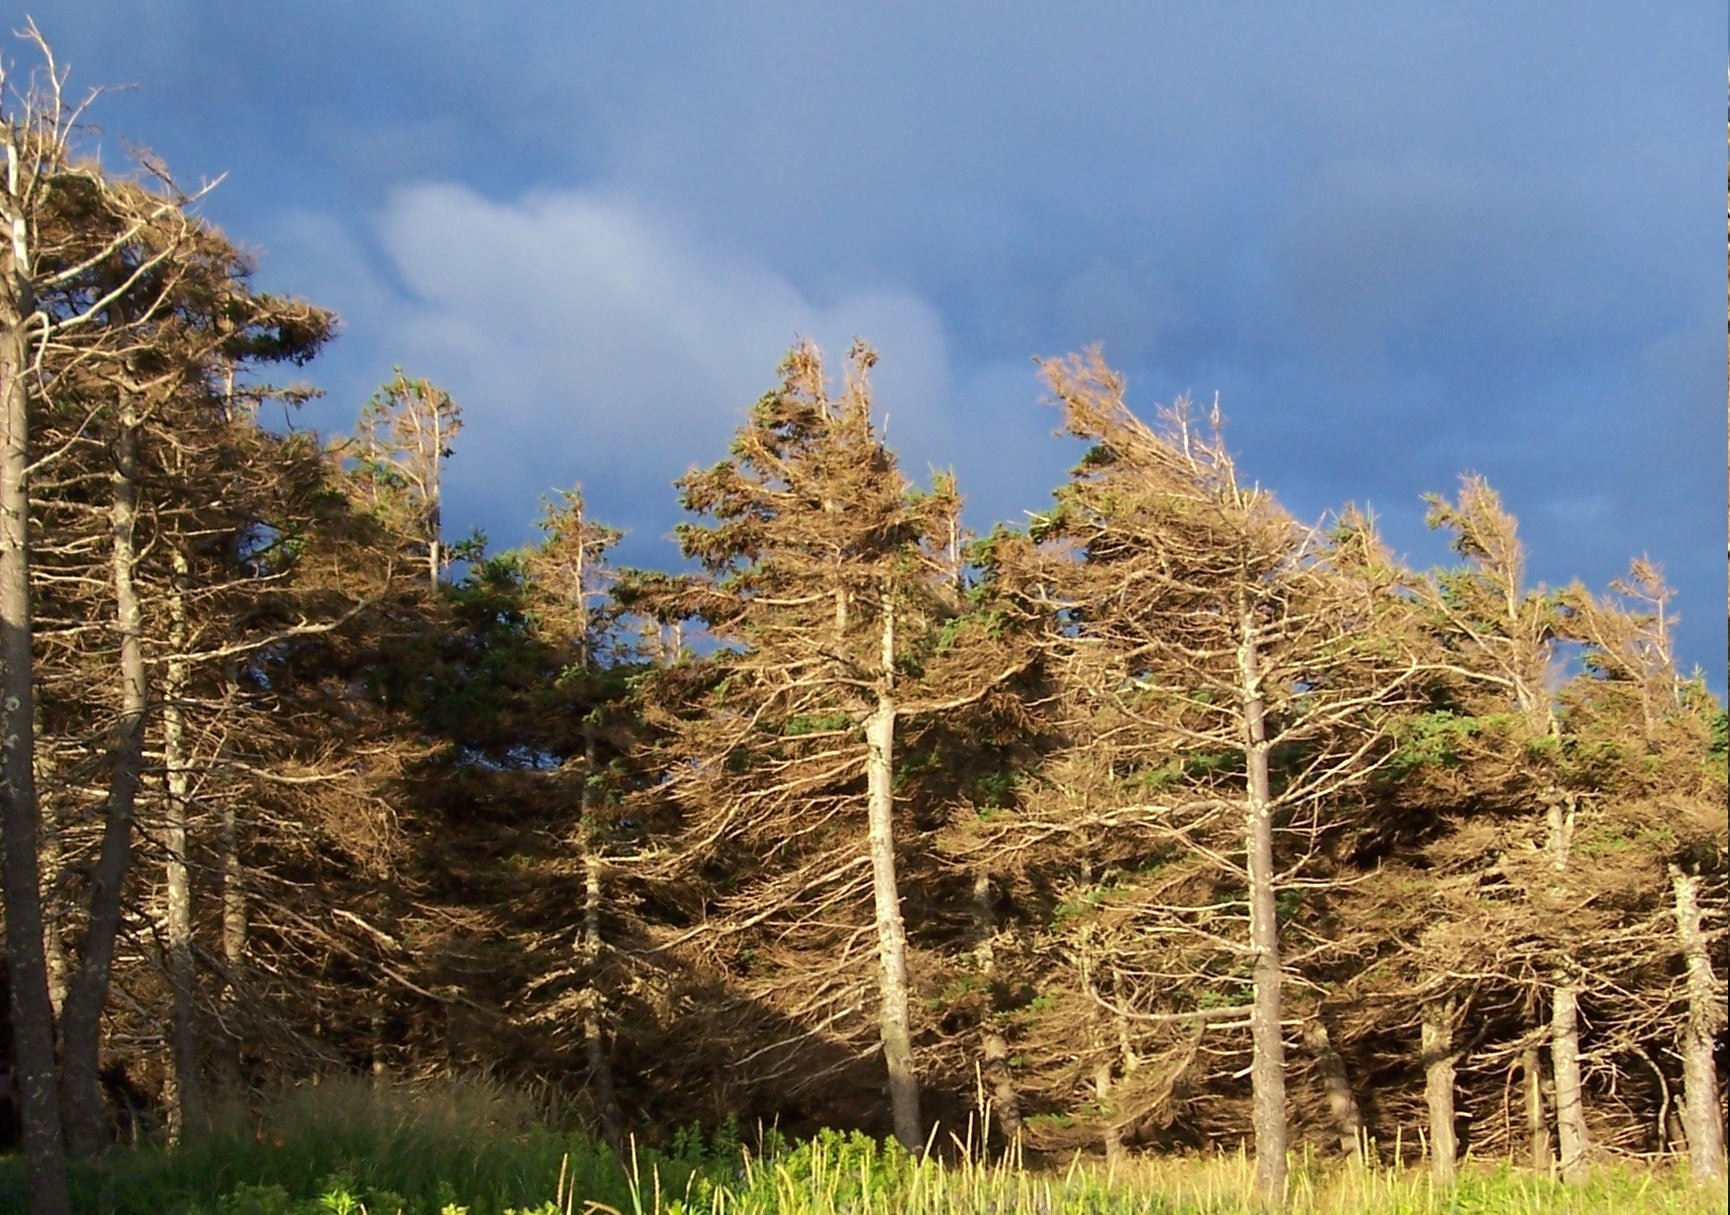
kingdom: Plantae
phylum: Tracheophyta
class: Pinopsida
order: Pinales
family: Pinaceae
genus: Picea
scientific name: Picea glauca
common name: White spruce
